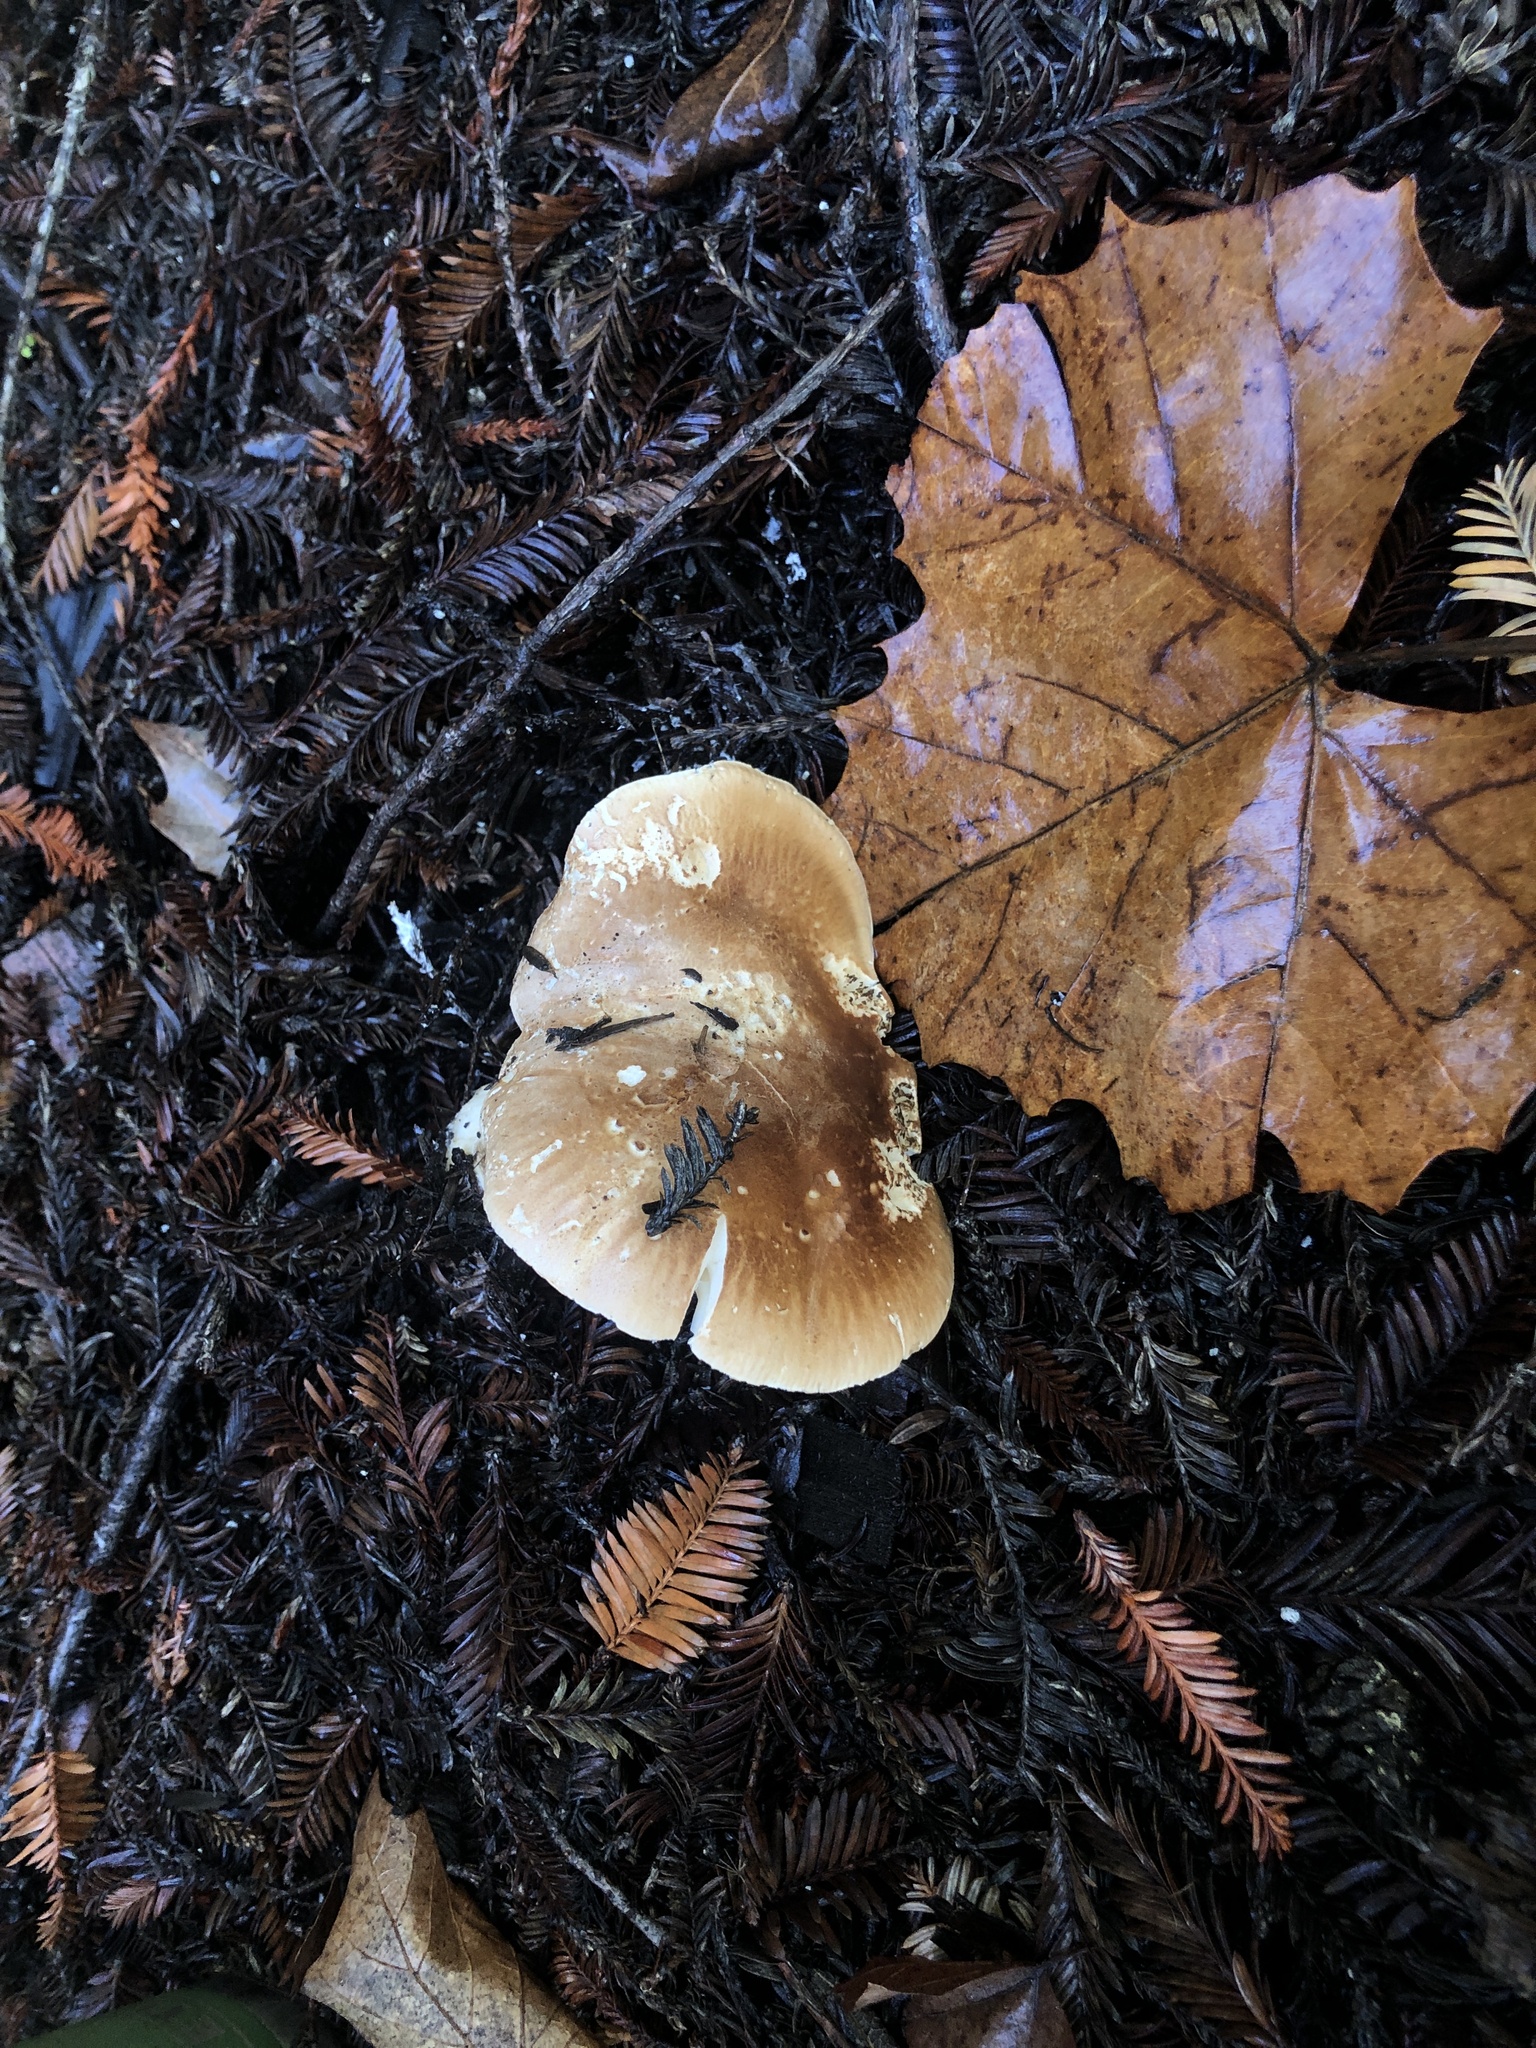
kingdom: Fungi
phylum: Basidiomycota
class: Agaricomycetes
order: Agaricales
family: Tricholomataceae
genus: Leucopaxillus
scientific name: Leucopaxillus gentianeus
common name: Bitter funnel
